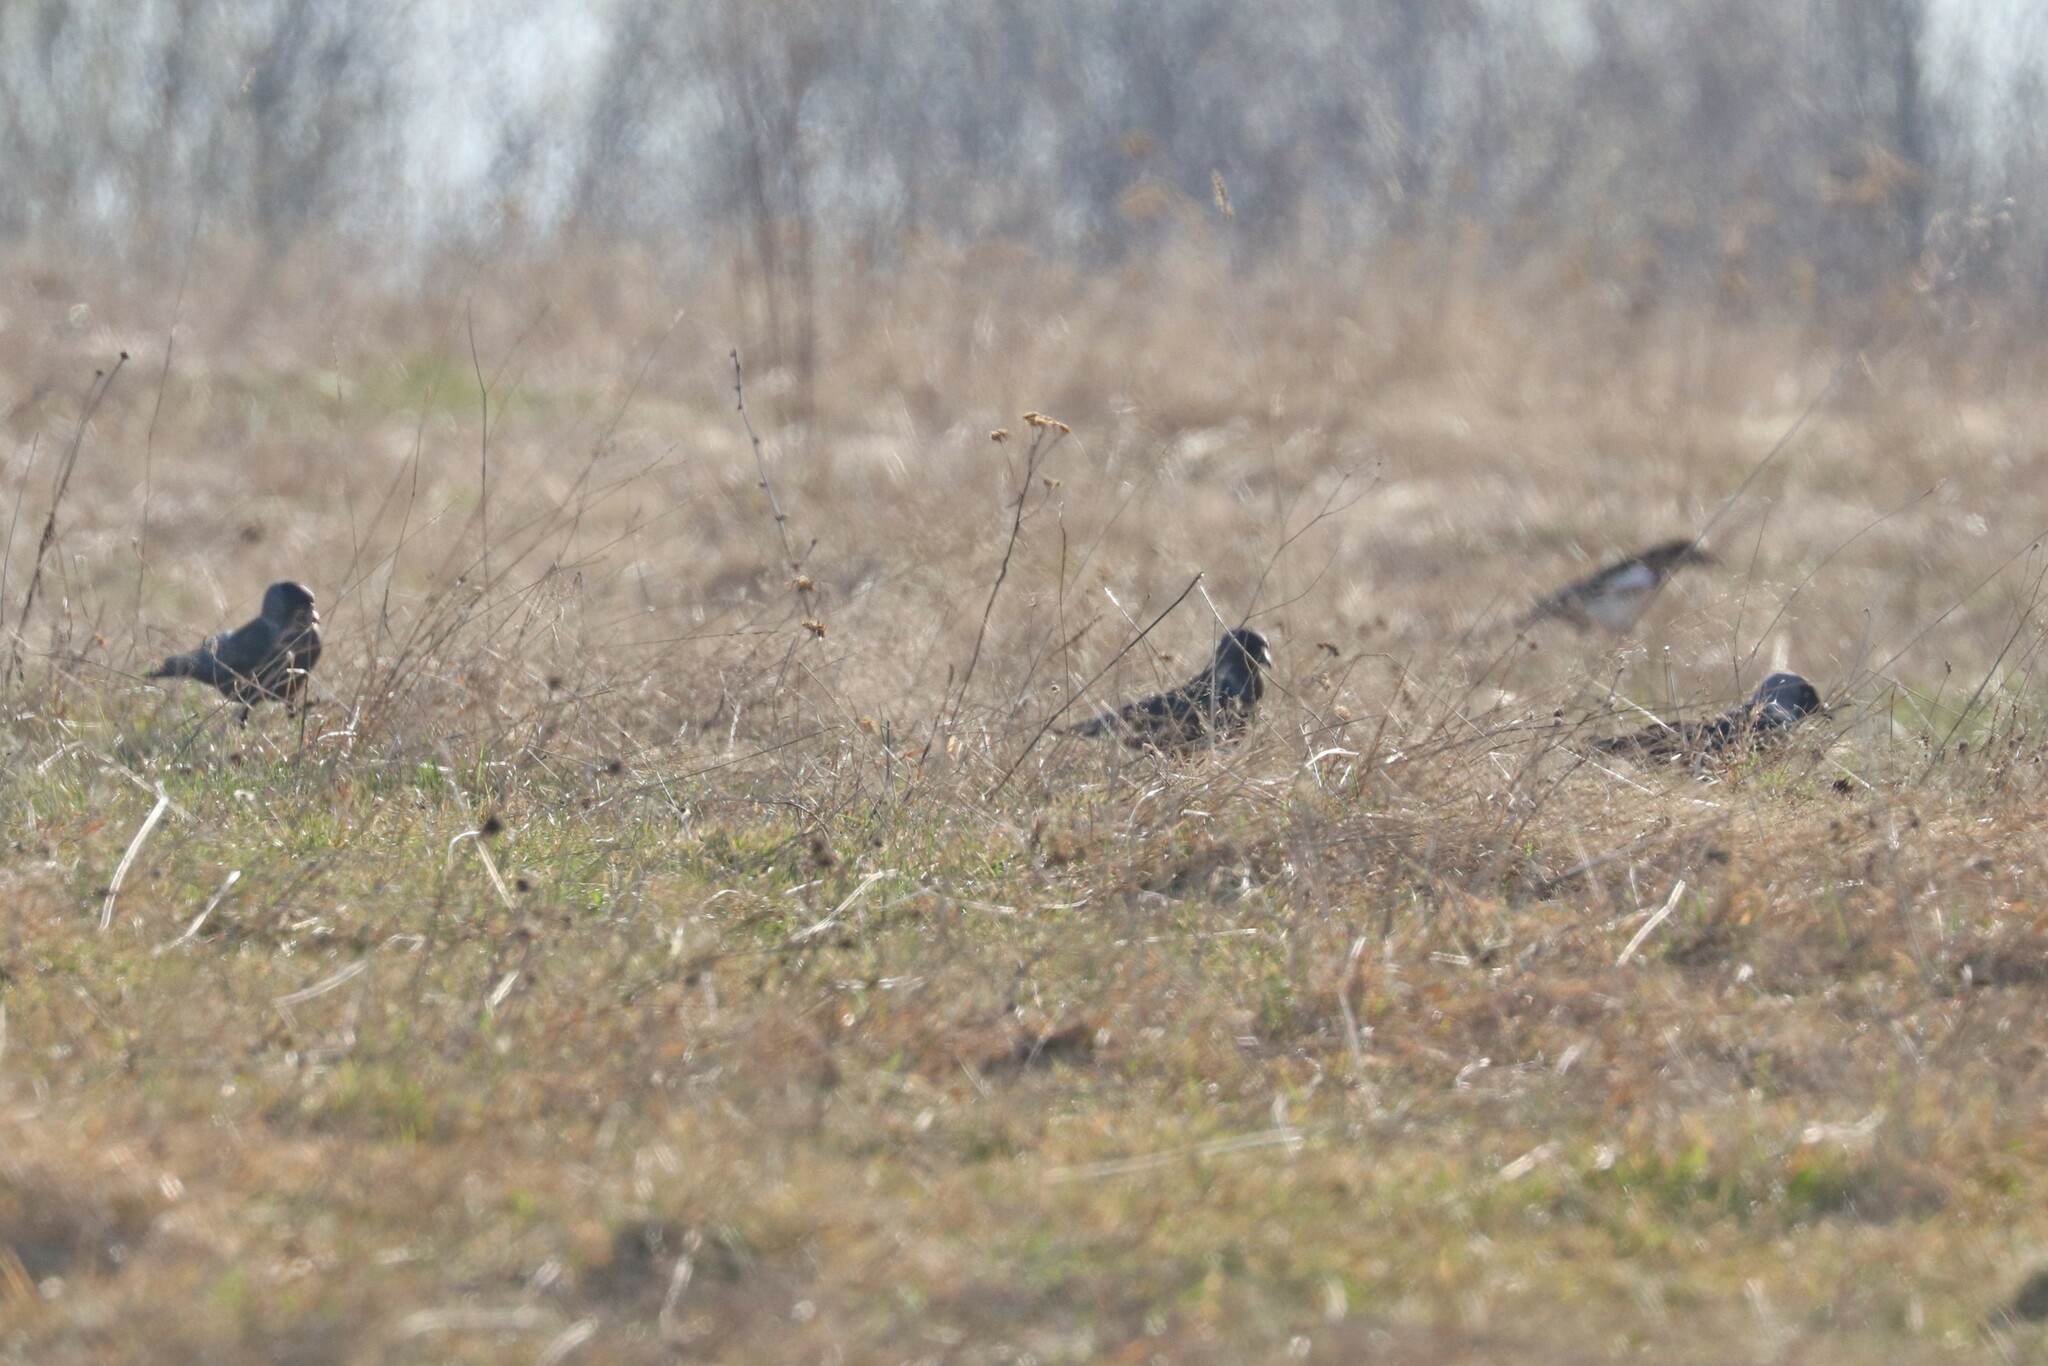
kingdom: Animalia
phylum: Chordata
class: Aves
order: Passeriformes
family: Corvidae
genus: Coloeus
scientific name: Coloeus monedula
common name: Western jackdaw
